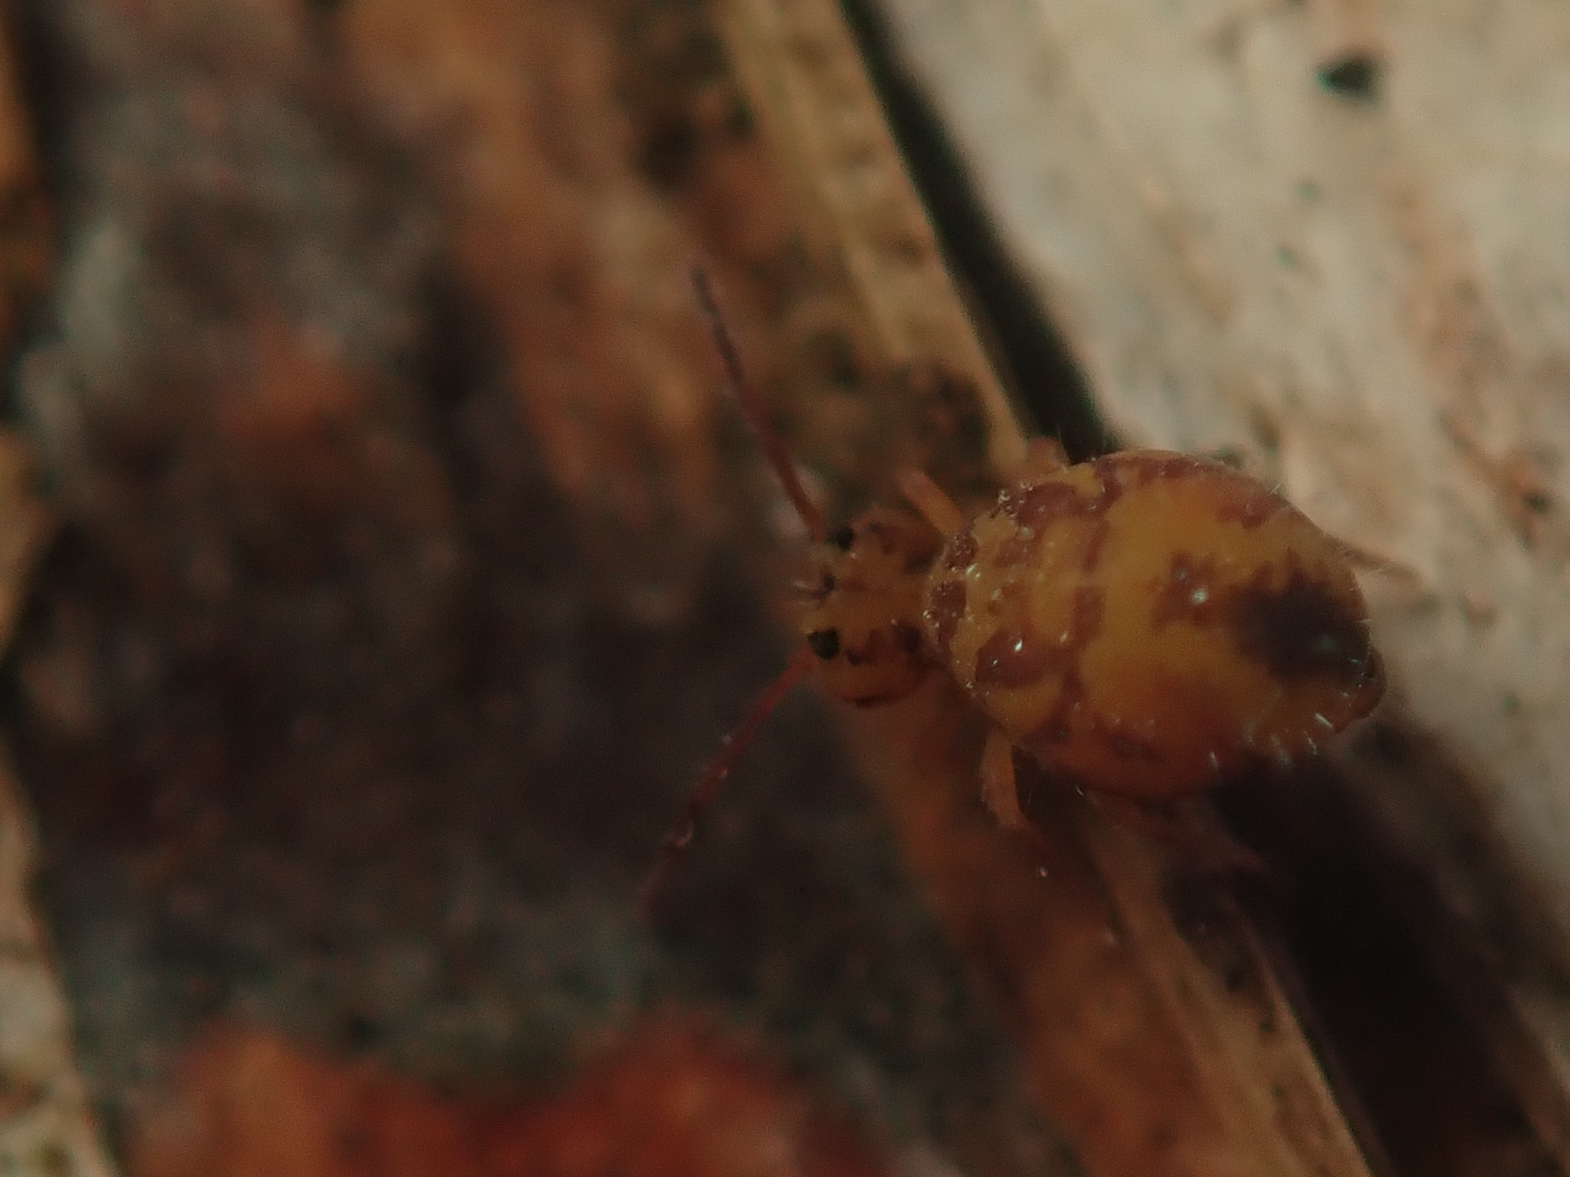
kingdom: Animalia
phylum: Arthropoda
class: Collembola
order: Symphypleona
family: Dicyrtomidae
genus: Dicyrtomina
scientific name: Dicyrtomina ornata
